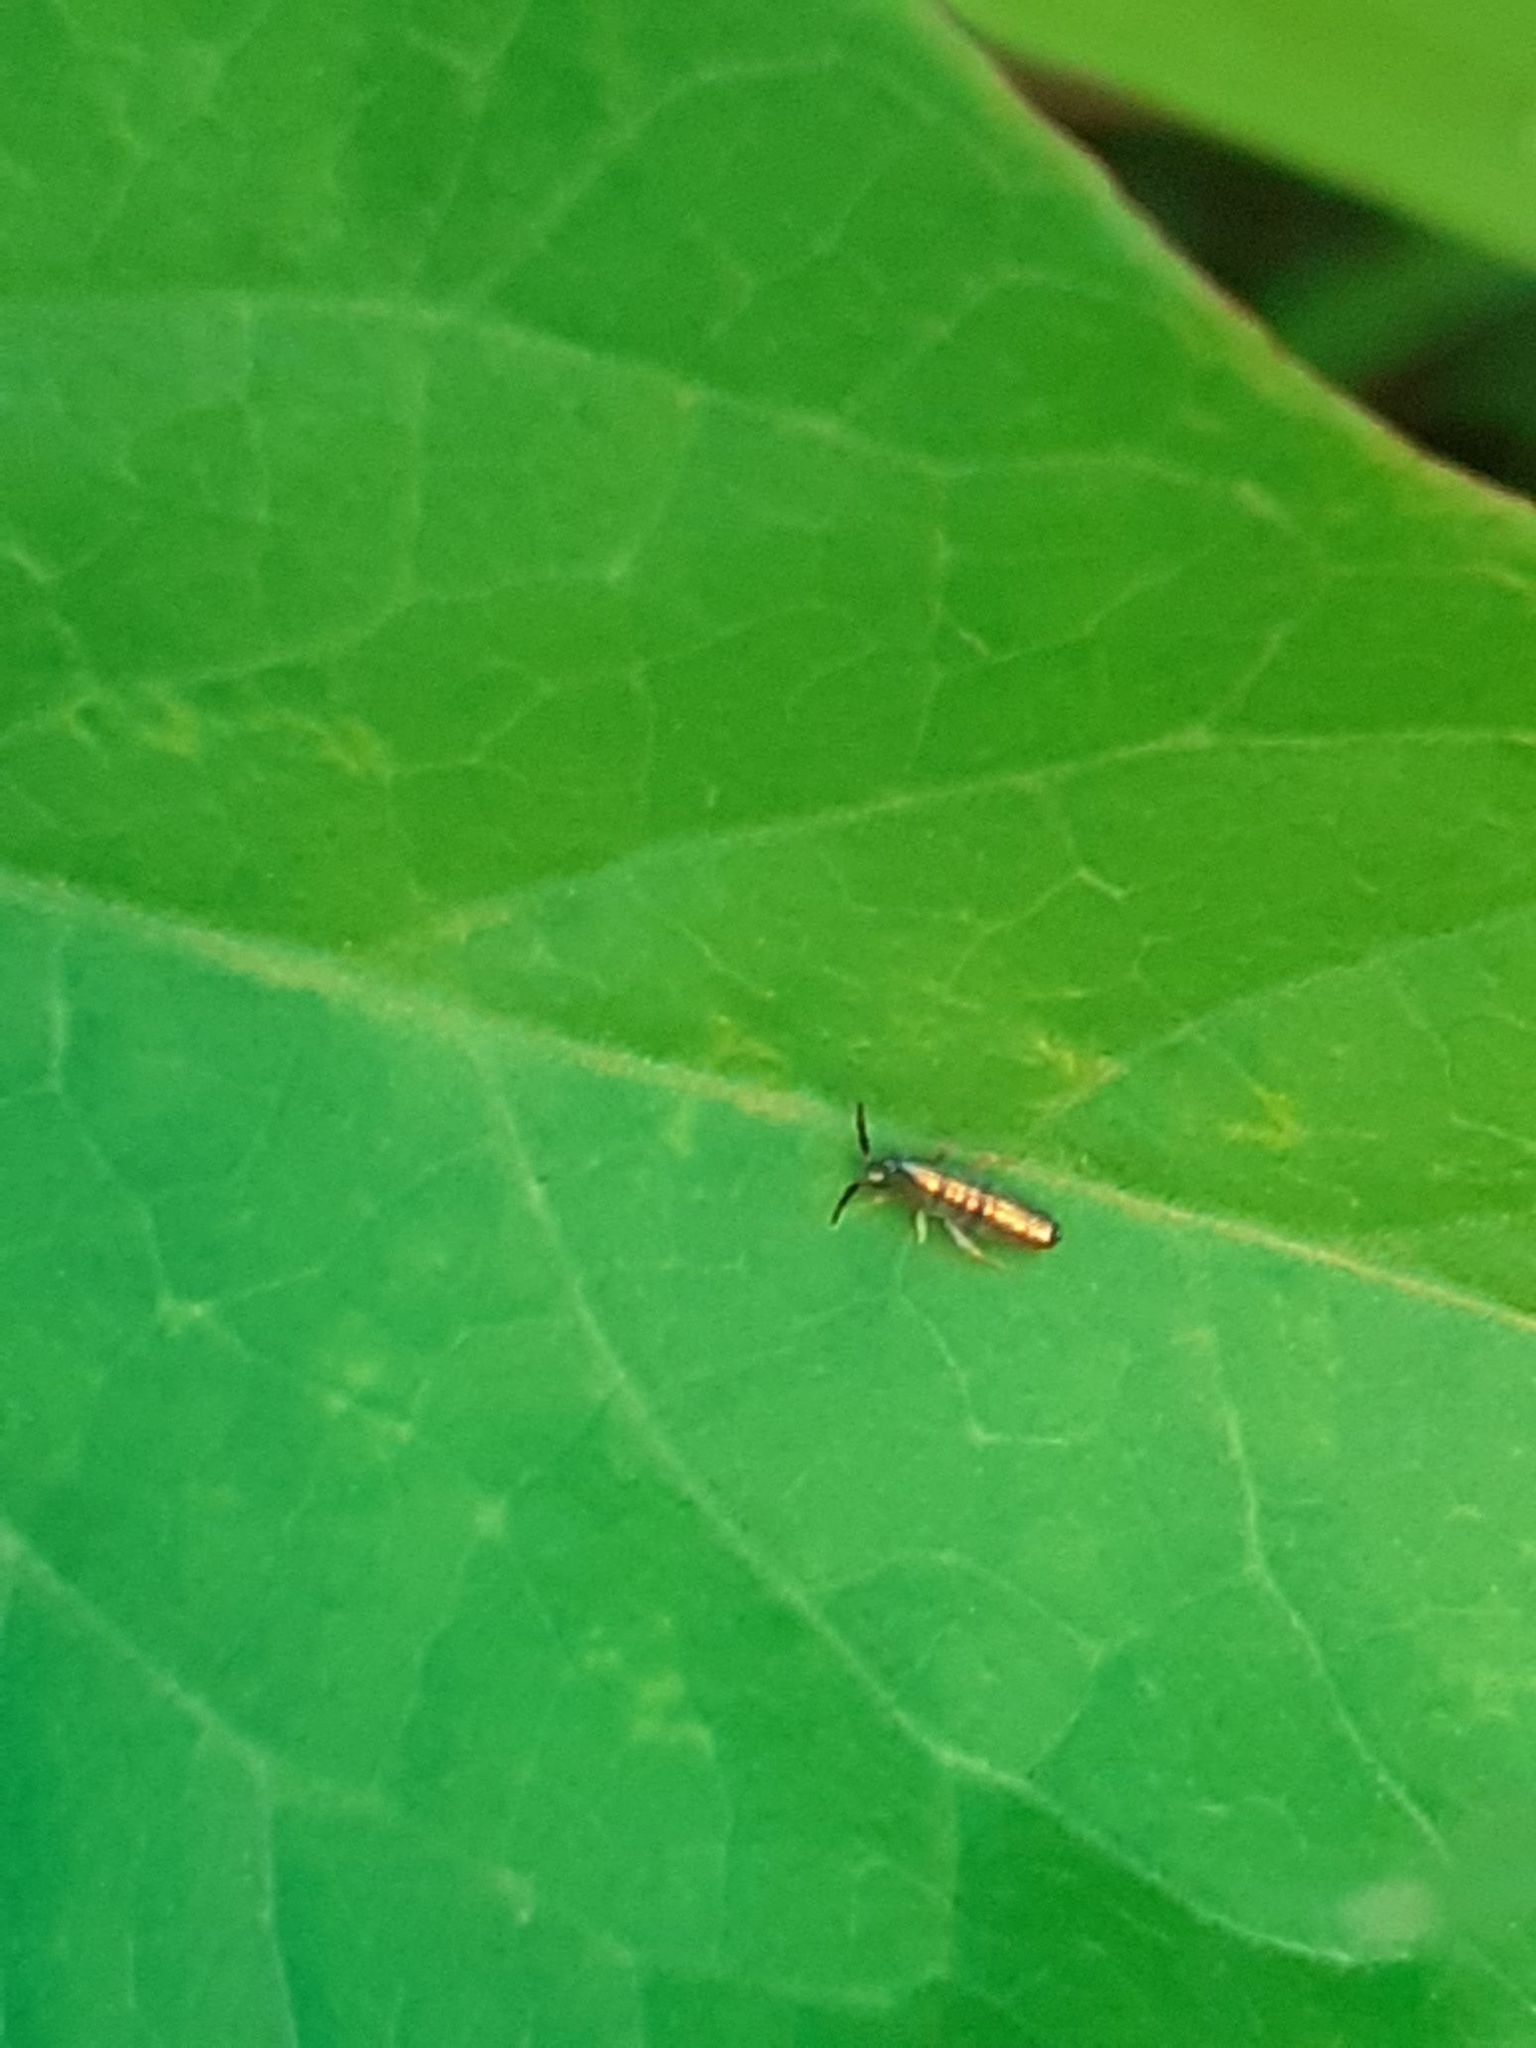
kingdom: Animalia
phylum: Arthropoda
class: Collembola
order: Entomobryomorpha
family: Entomobryidae
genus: Lepidocyrtus
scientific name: Lepidocyrtus paradoxus
